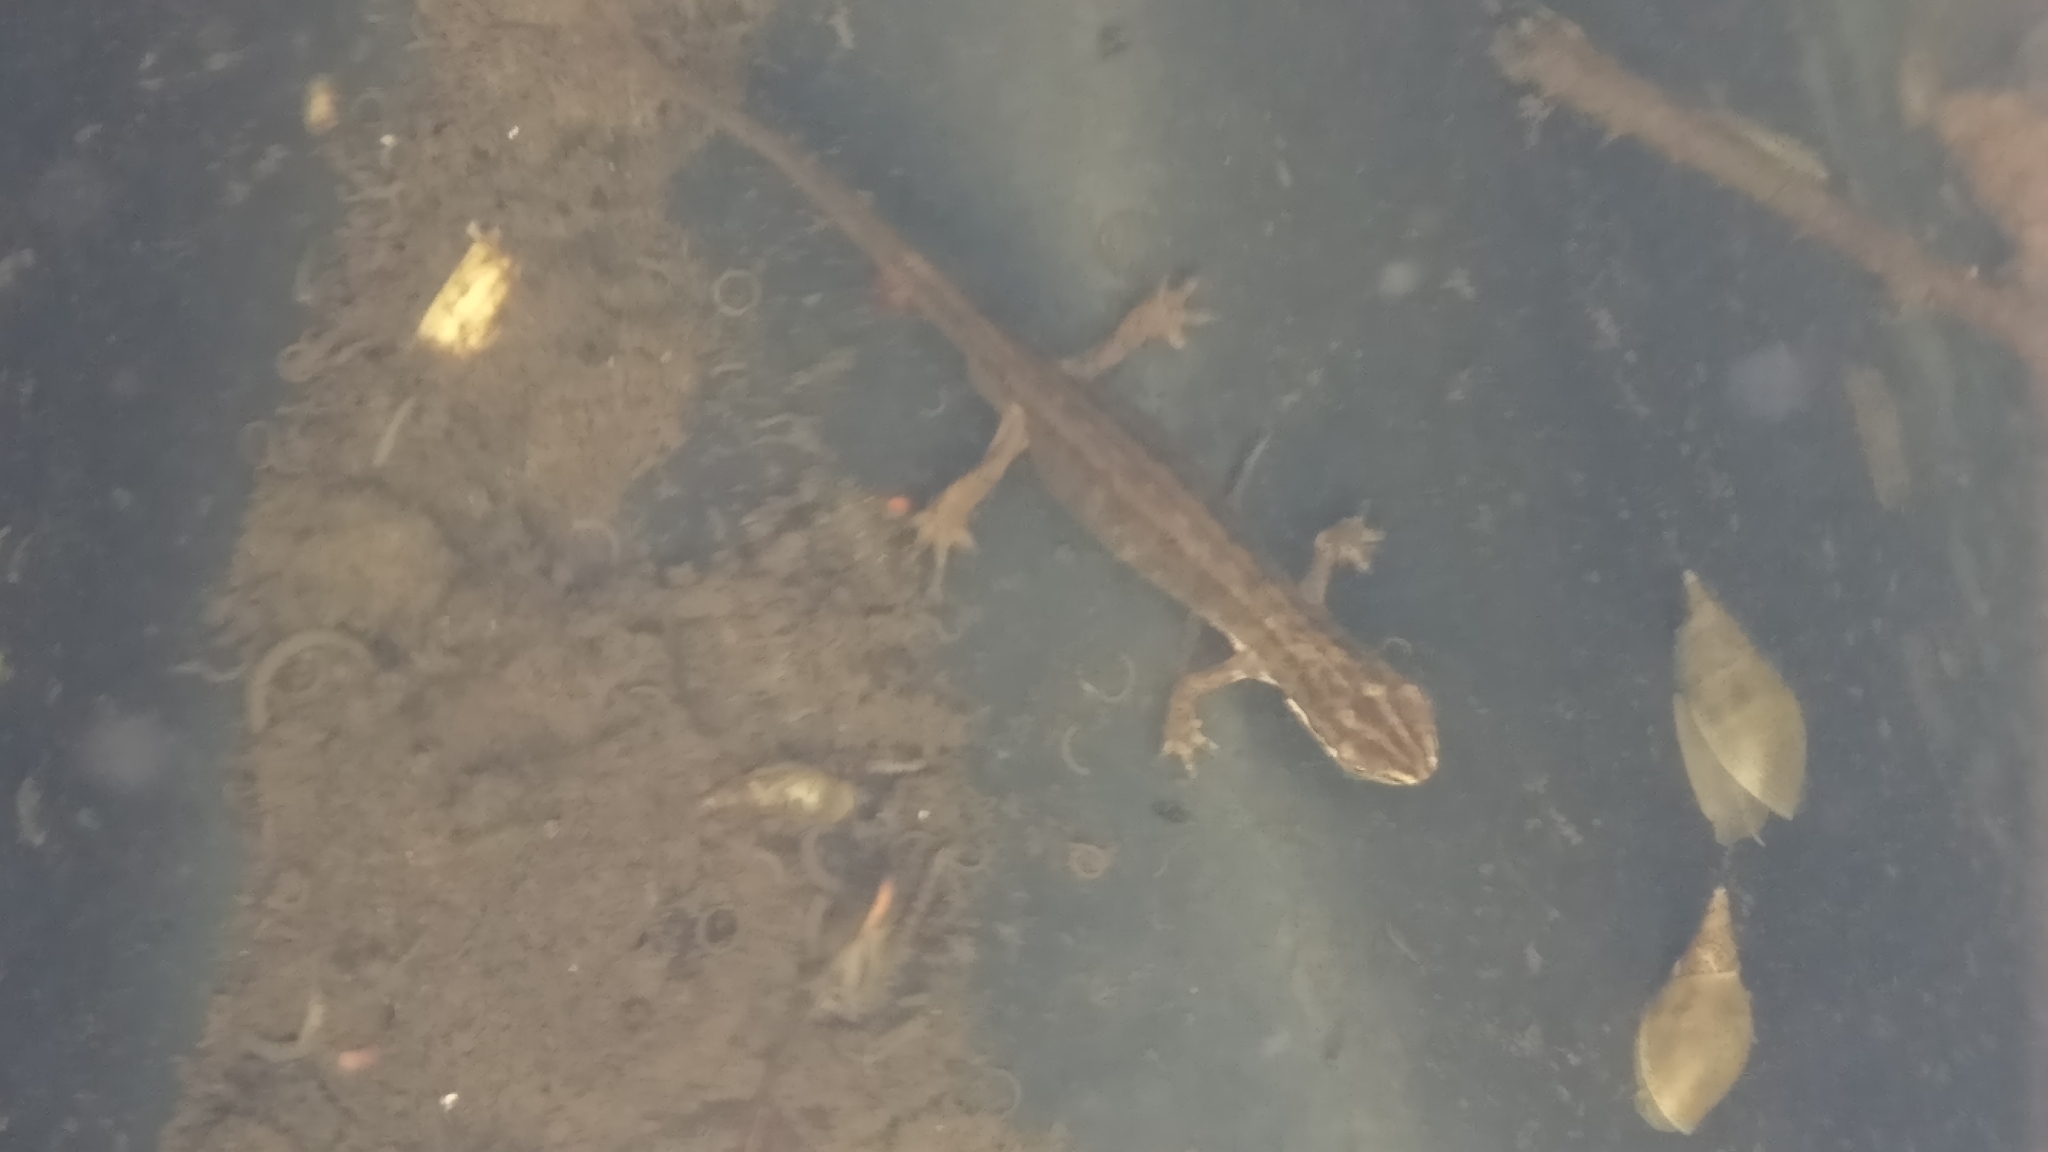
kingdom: Animalia
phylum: Chordata
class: Amphibia
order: Caudata
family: Salamandridae
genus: Lissotriton
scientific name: Lissotriton vulgaris
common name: Smooth newt
